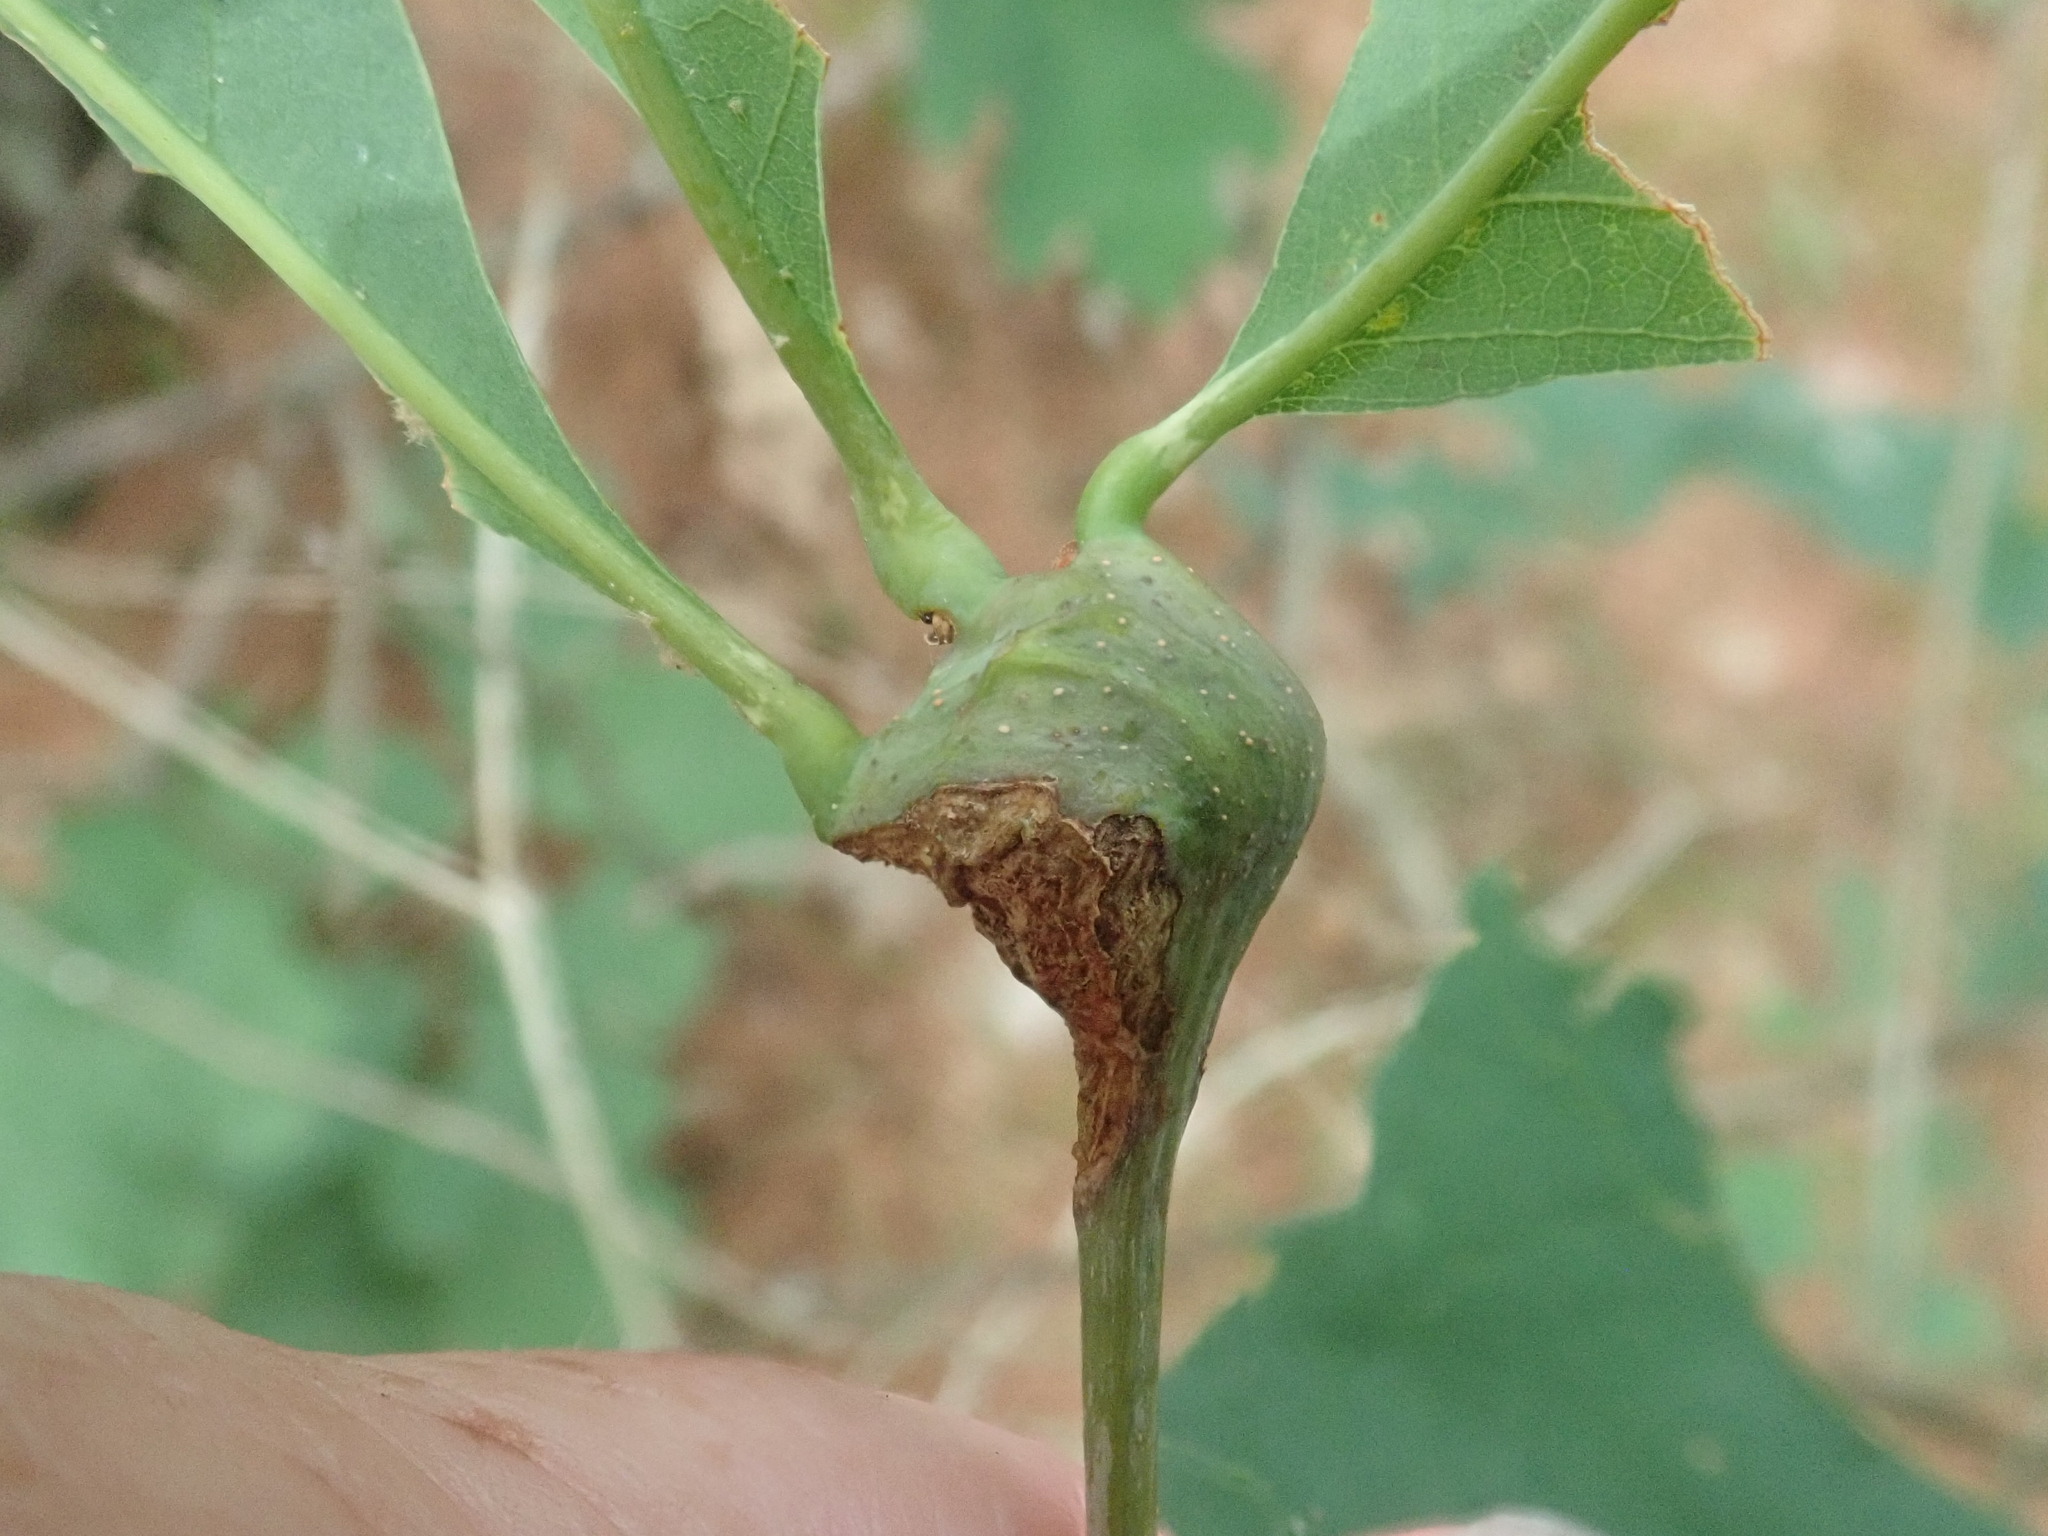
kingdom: Animalia
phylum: Arthropoda
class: Insecta
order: Hymenoptera
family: Cynipidae
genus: Callirhytis
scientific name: Callirhytis clavula
